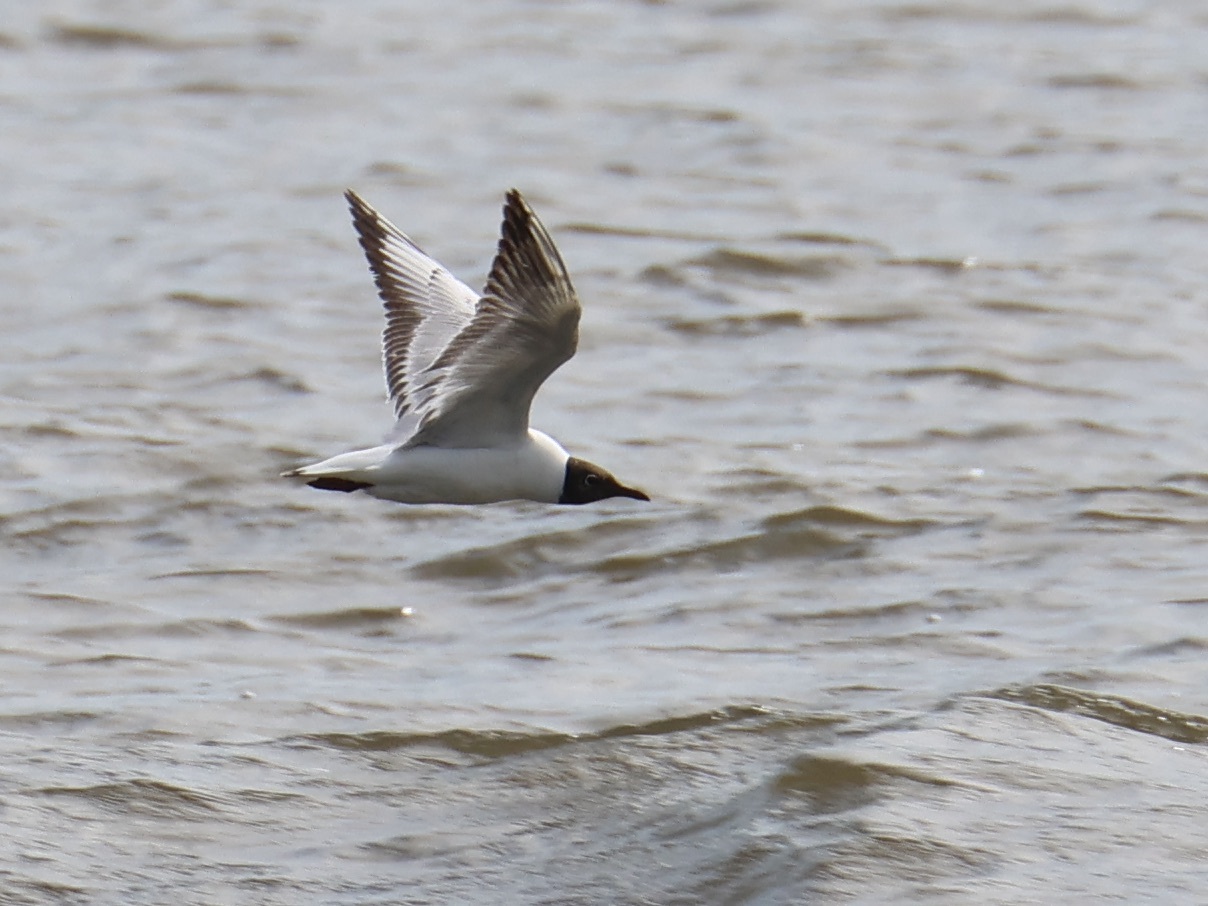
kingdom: Animalia
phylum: Chordata
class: Aves
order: Charadriiformes
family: Laridae
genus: Chroicocephalus
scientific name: Chroicocephalus ridibundus
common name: Black-headed gull
